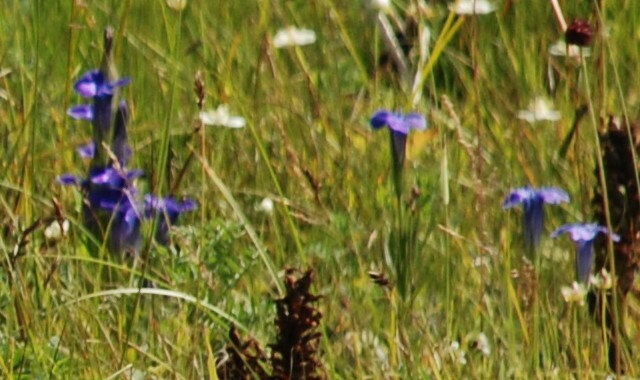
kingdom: Plantae
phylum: Tracheophyta
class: Magnoliopsida
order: Gentianales
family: Gentianaceae
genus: Gentianopsis
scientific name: Gentianopsis barbata
